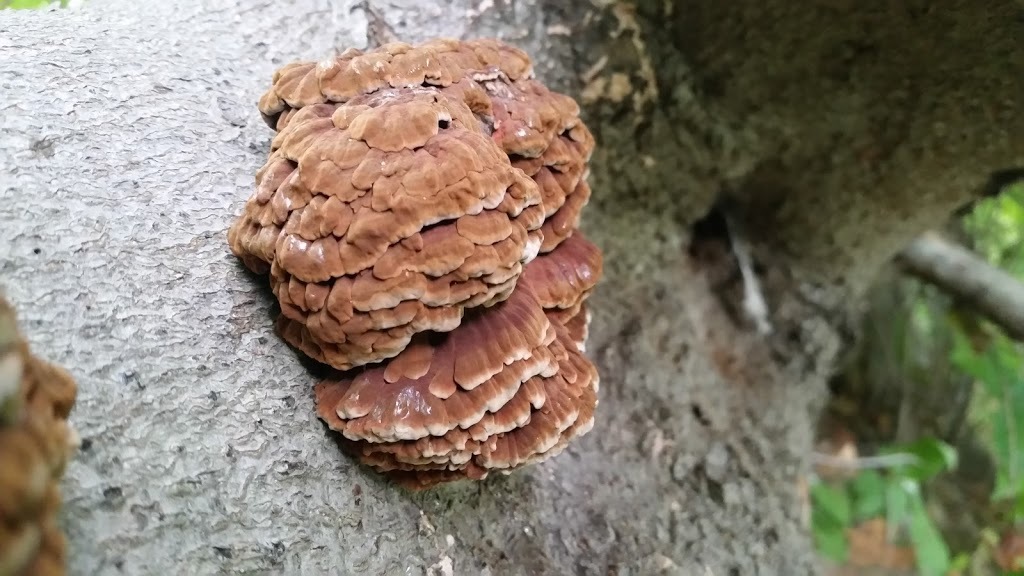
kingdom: Fungi
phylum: Basidiomycota
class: Agaricomycetes
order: Polyporales
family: Polyporaceae
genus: Globifomes
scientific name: Globifomes graveolens
